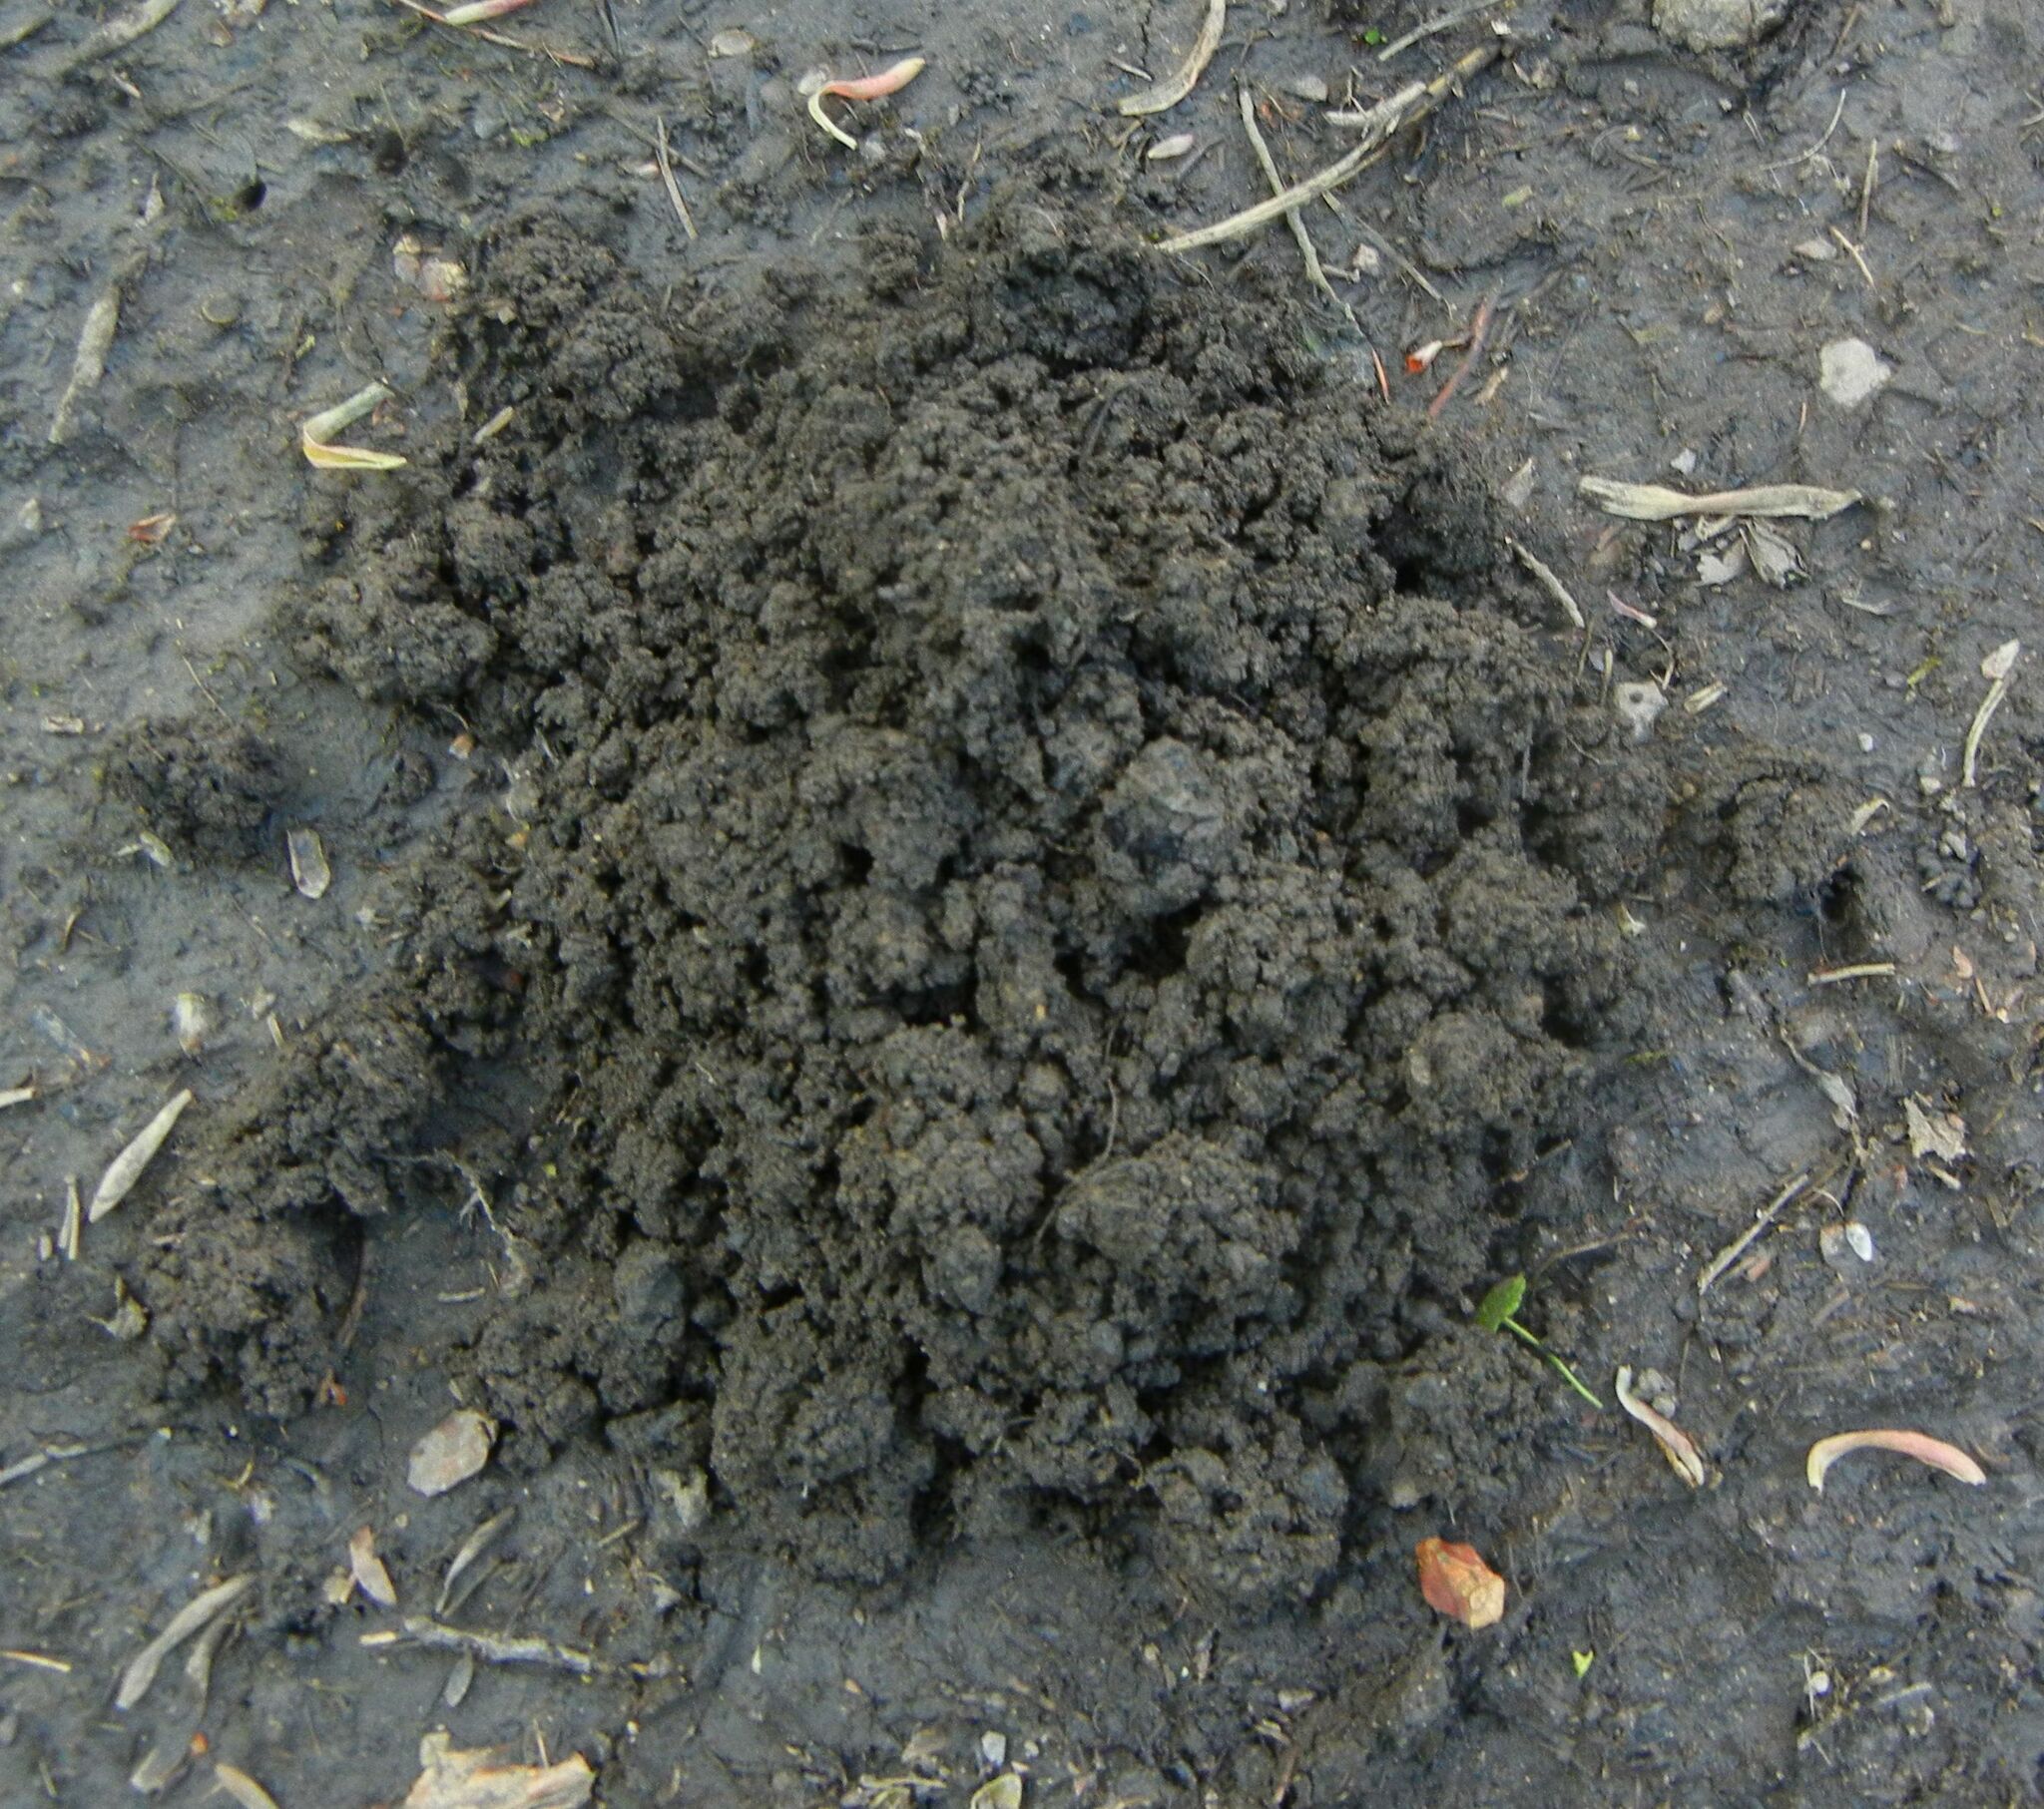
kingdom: Animalia
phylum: Chordata
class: Mammalia
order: Soricomorpha
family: Talpidae
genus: Talpa
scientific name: Talpa europaea
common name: European mole
